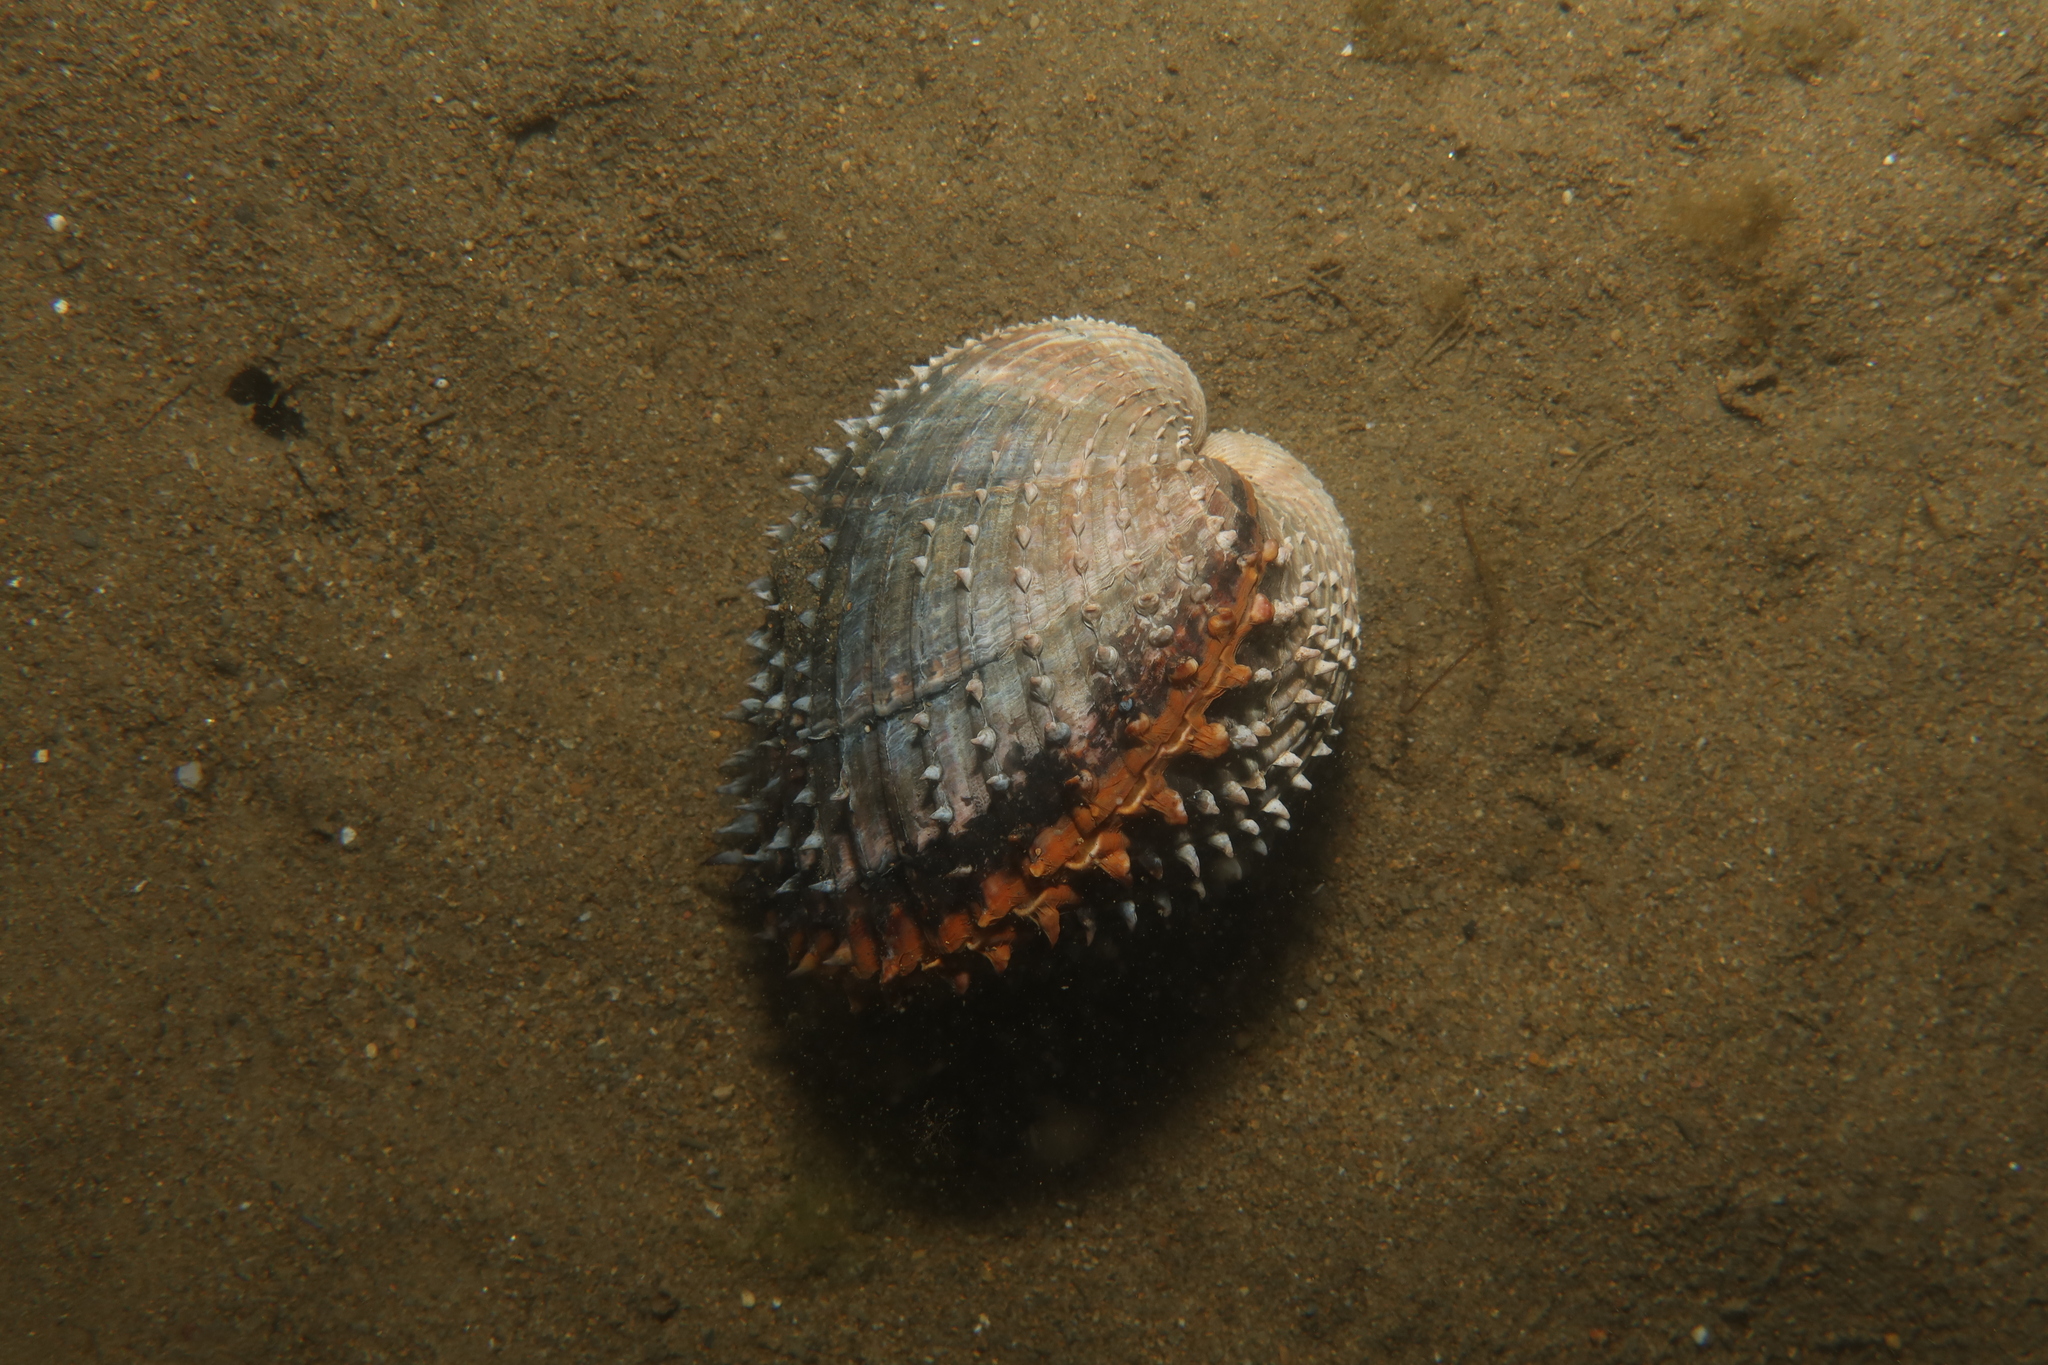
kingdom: Animalia
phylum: Mollusca
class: Bivalvia
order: Cardiida
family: Cardiidae
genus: Acanthocardia
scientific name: Acanthocardia aculeata
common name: Spiny cockle
